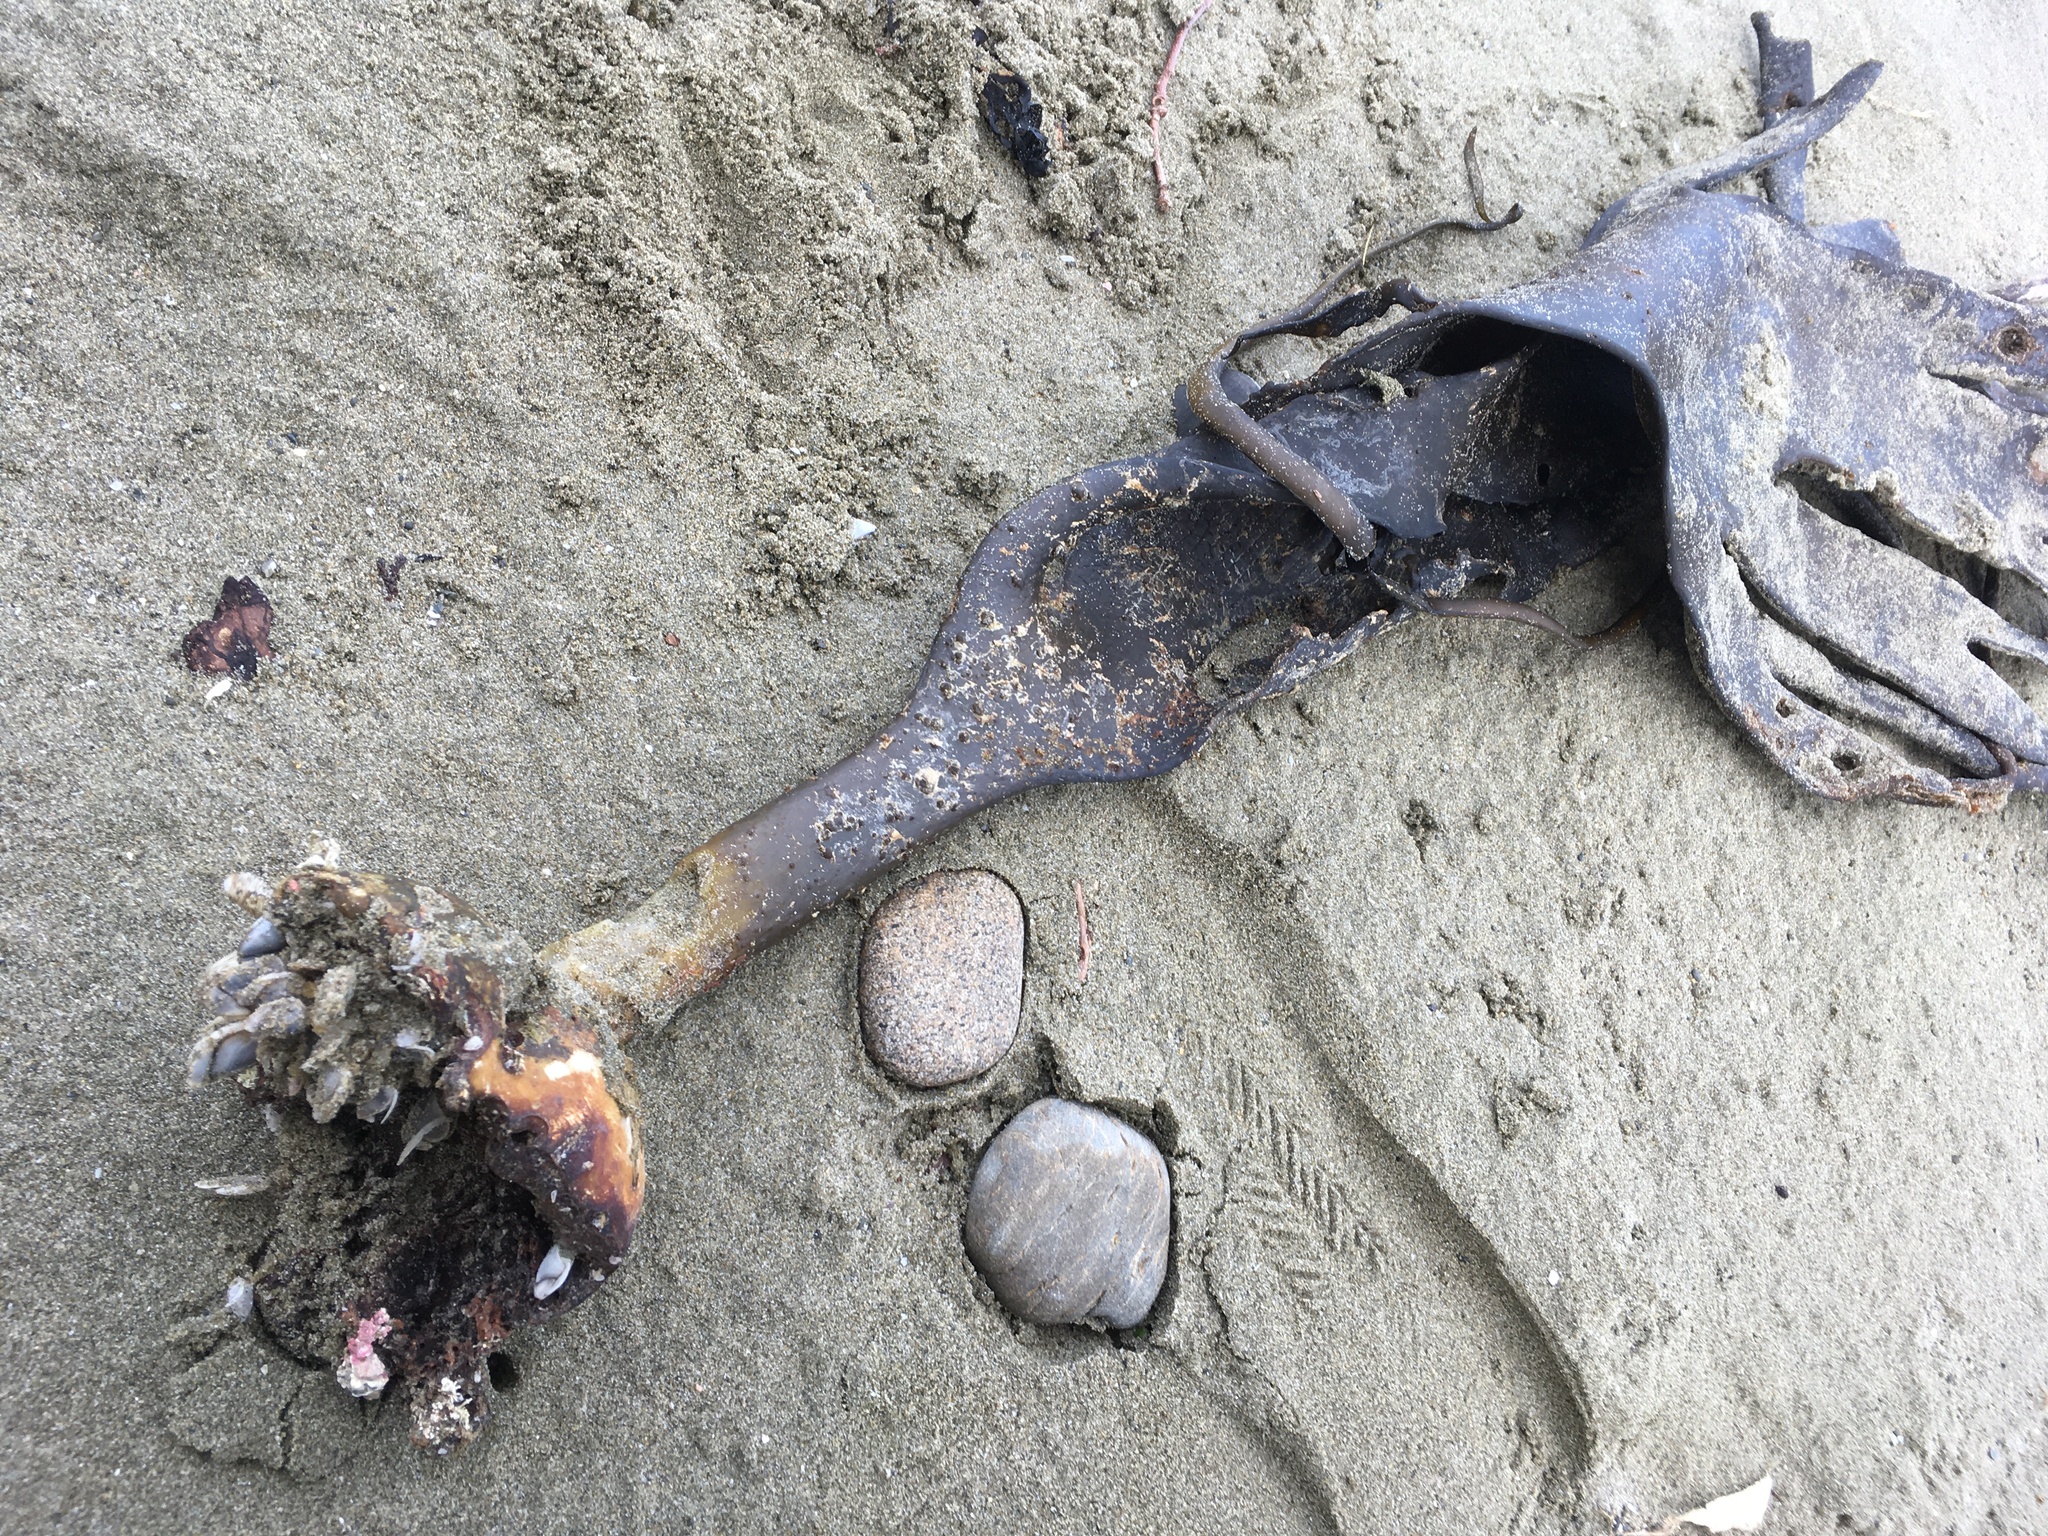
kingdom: Animalia
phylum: Arthropoda
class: Maxillopoda
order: Pedunculata
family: Lepadidae
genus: Lepas
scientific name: Lepas australis
